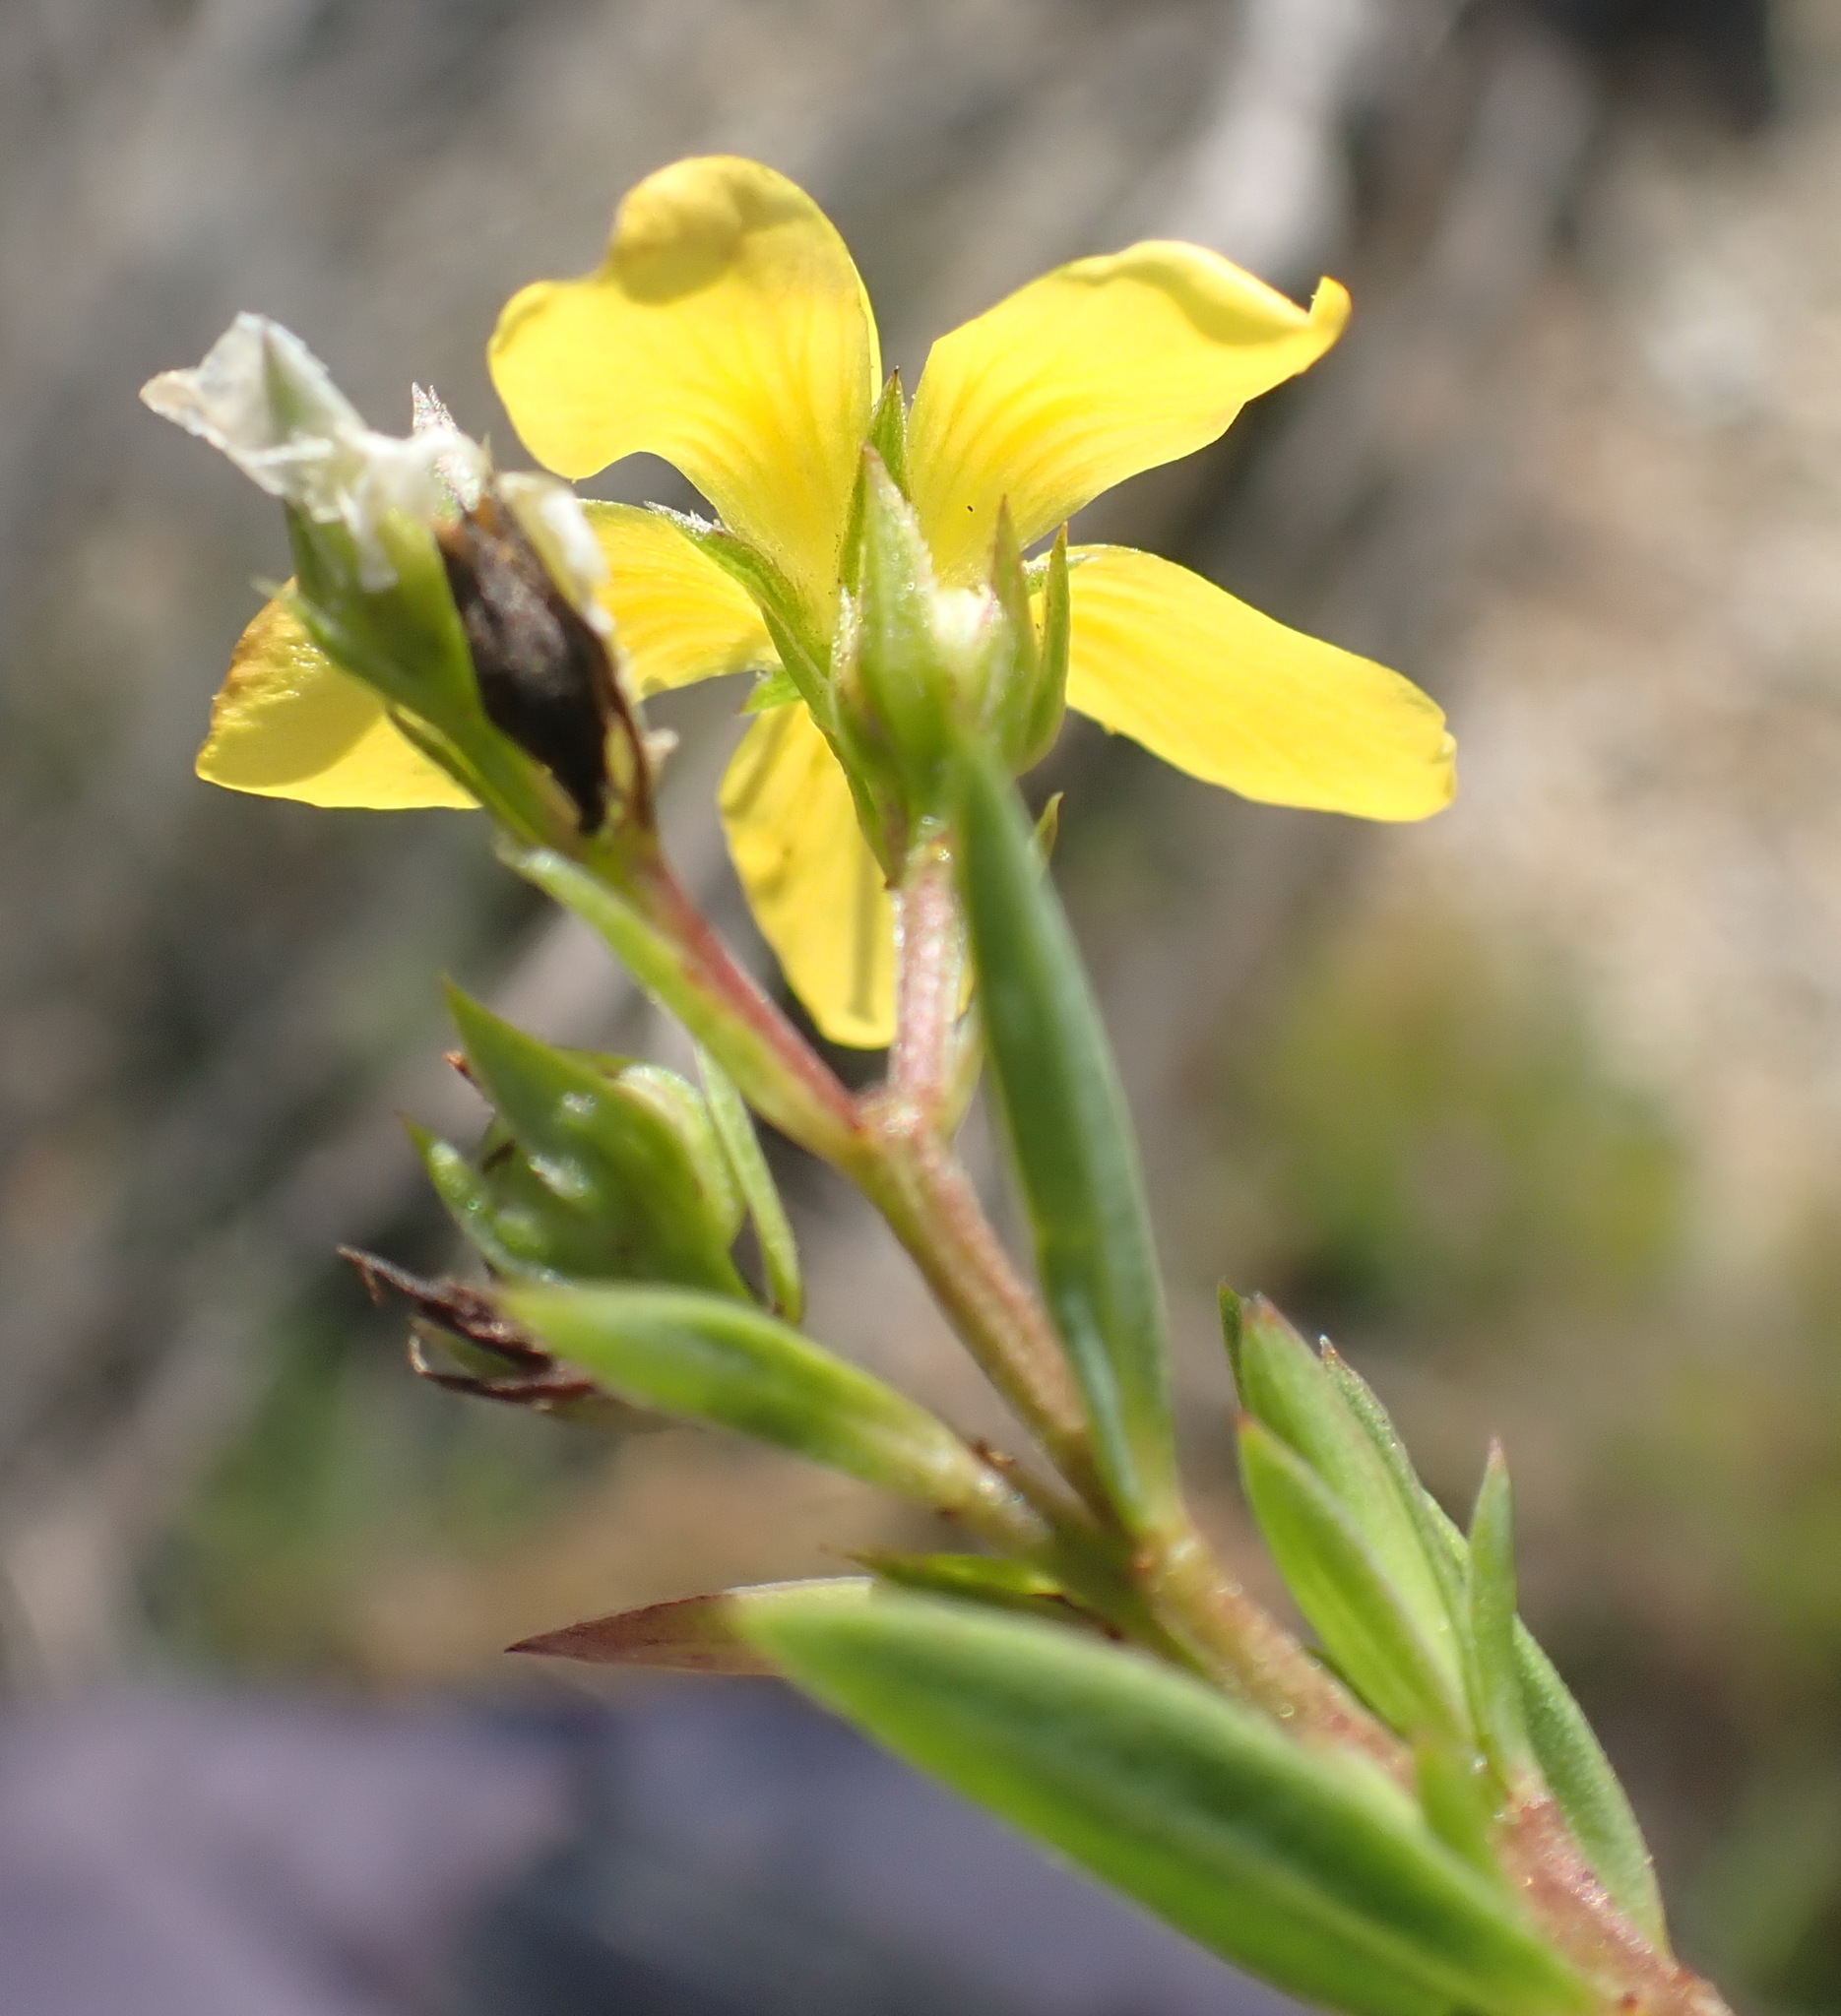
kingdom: Plantae
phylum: Tracheophyta
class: Magnoliopsida
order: Malpighiales
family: Linaceae
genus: Linum
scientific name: Linum aethiopicum
